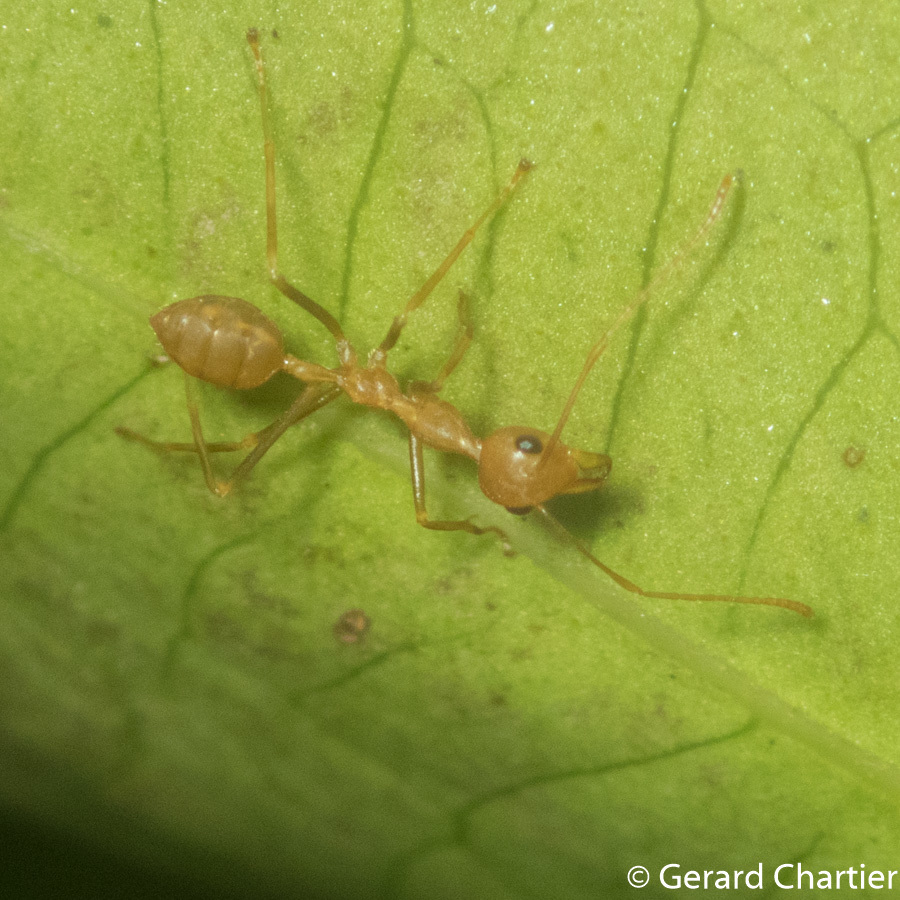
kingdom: Animalia
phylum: Arthropoda
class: Insecta
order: Hymenoptera
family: Formicidae
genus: Oecophylla
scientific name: Oecophylla smaragdina
